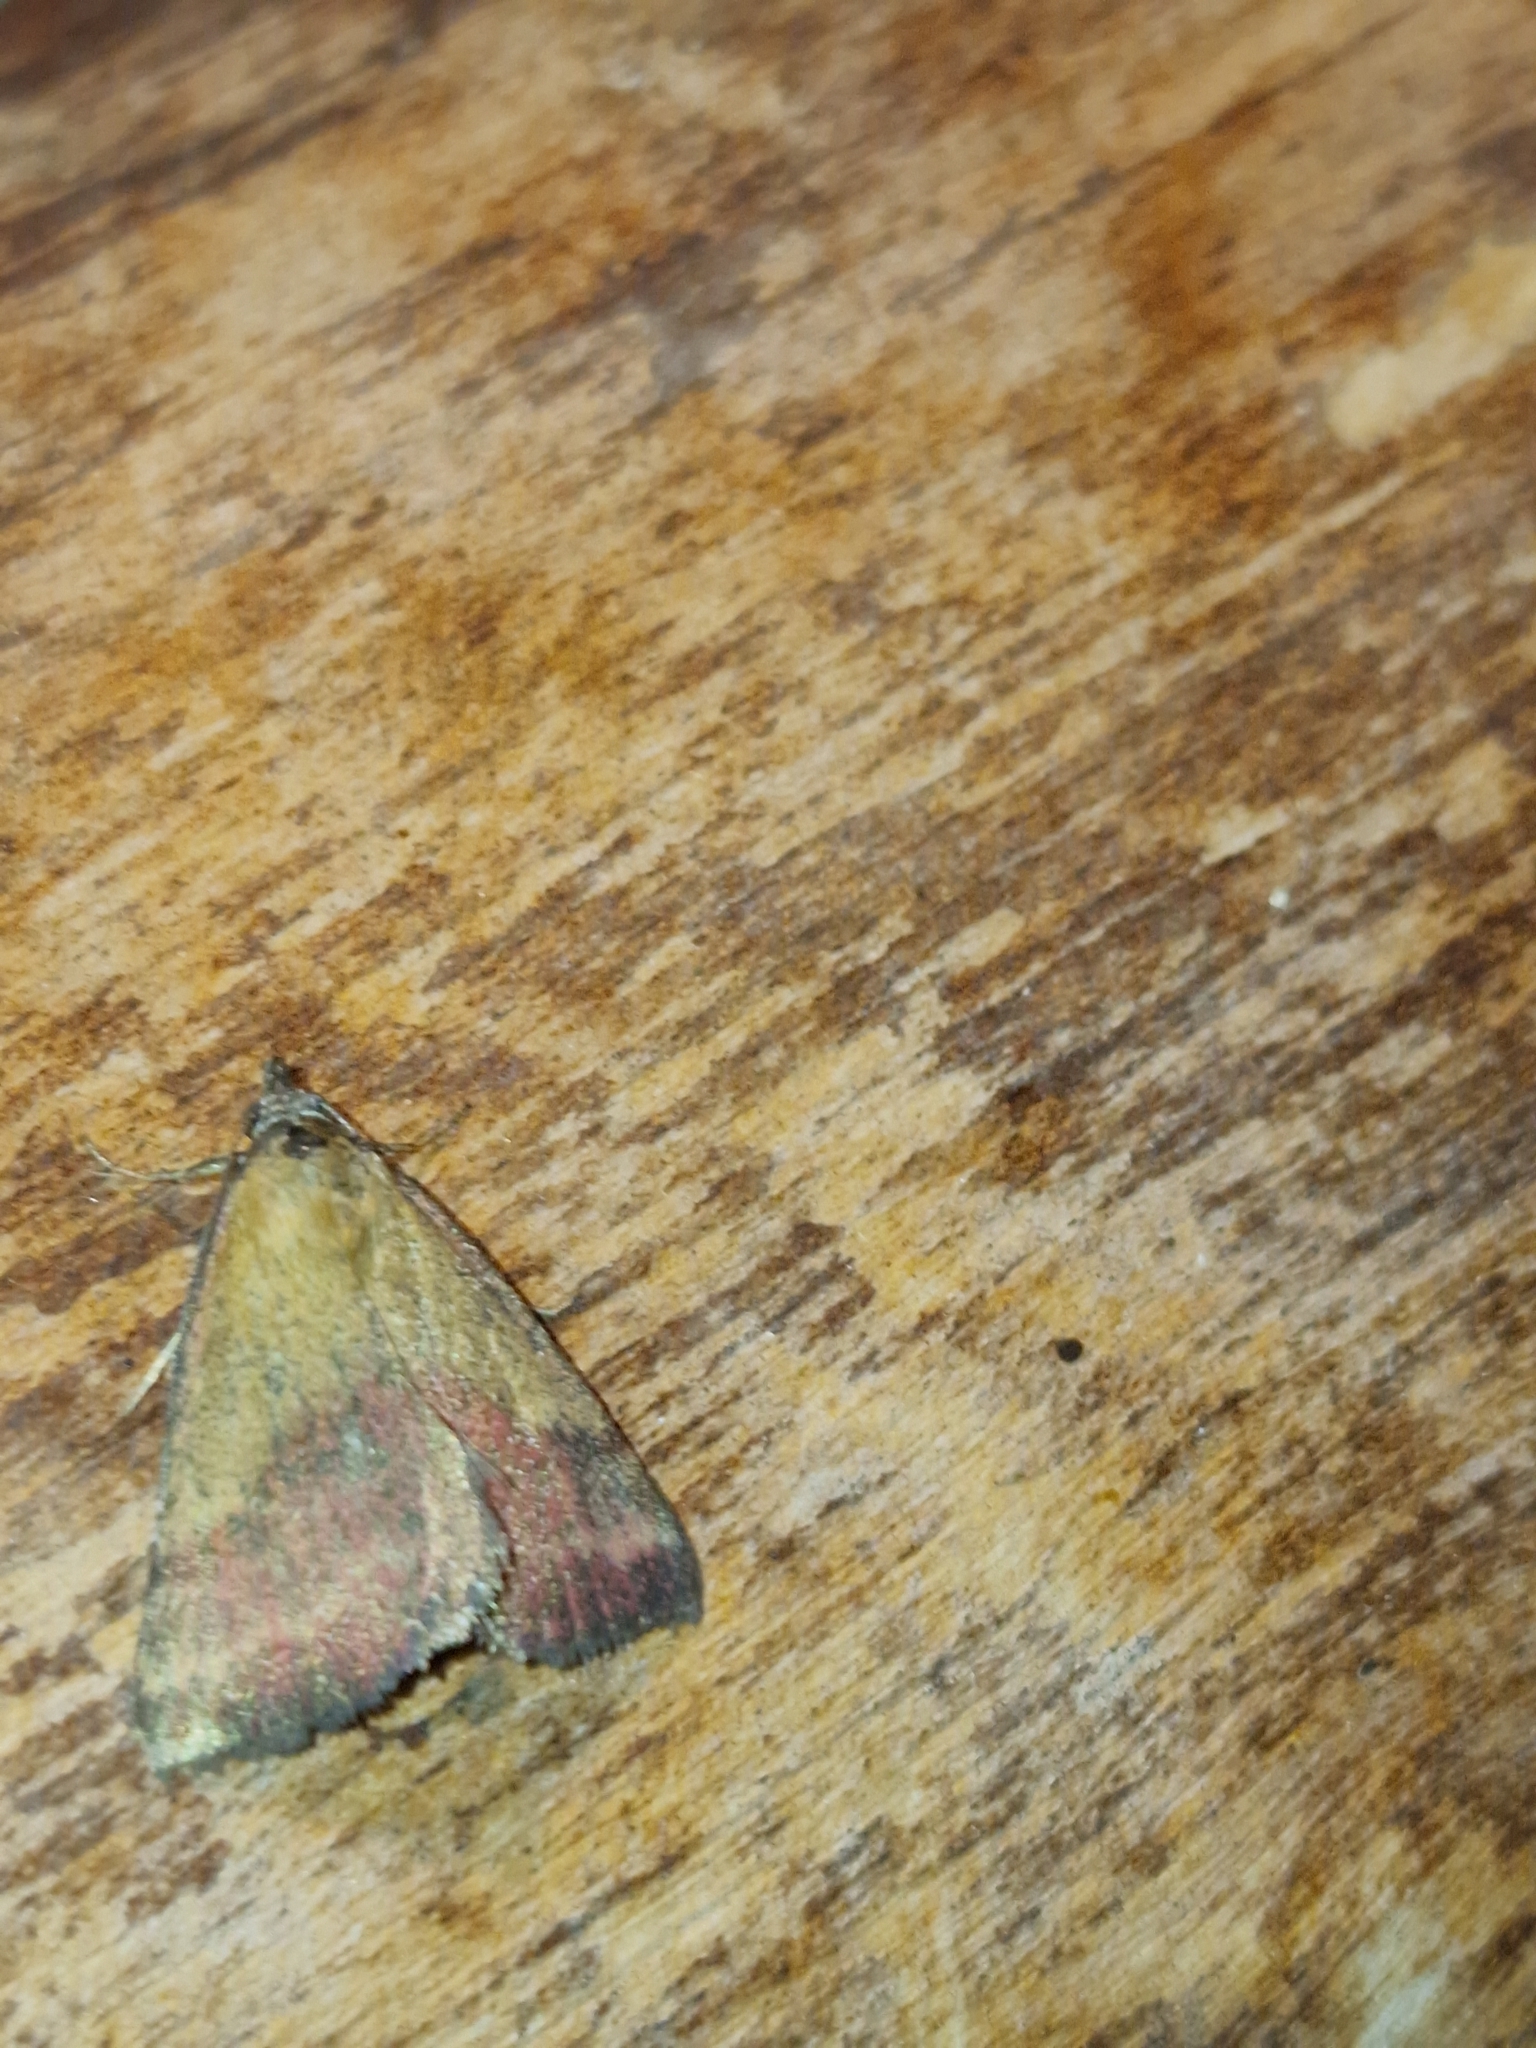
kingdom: Animalia
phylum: Arthropoda
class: Insecta
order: Lepidoptera
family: Erebidae
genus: Phytometra
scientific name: Phytometra viridaria
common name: Small purple-barred
